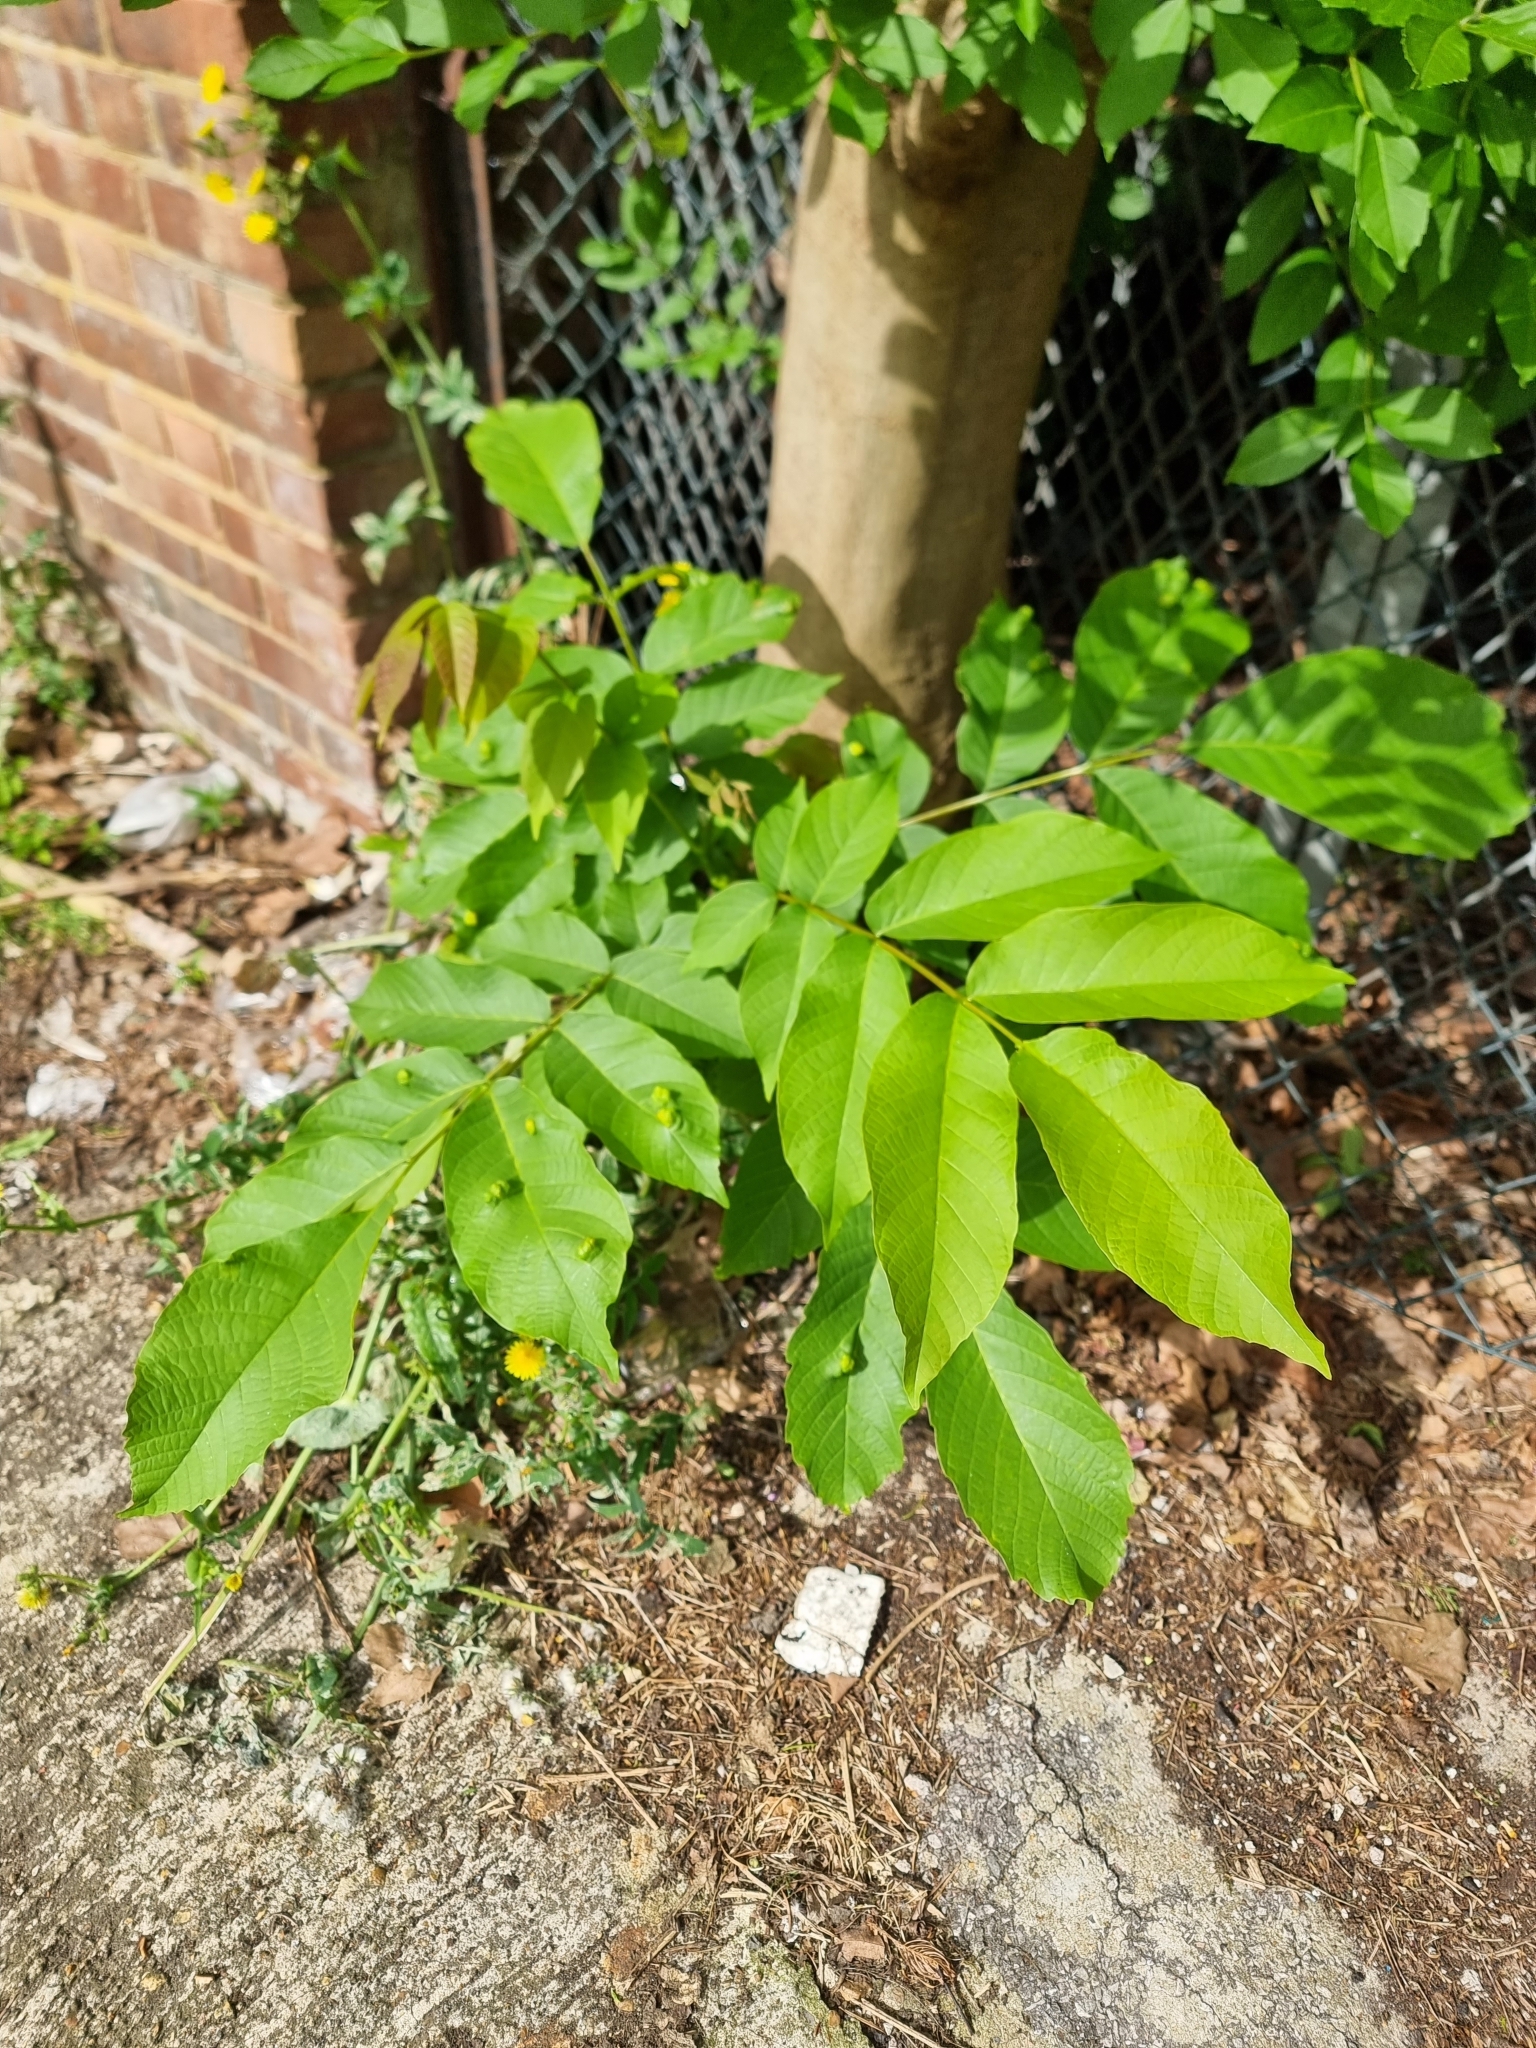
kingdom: Plantae
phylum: Tracheophyta
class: Magnoliopsida
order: Fagales
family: Juglandaceae
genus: Juglans
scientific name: Juglans regia
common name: Walnut
